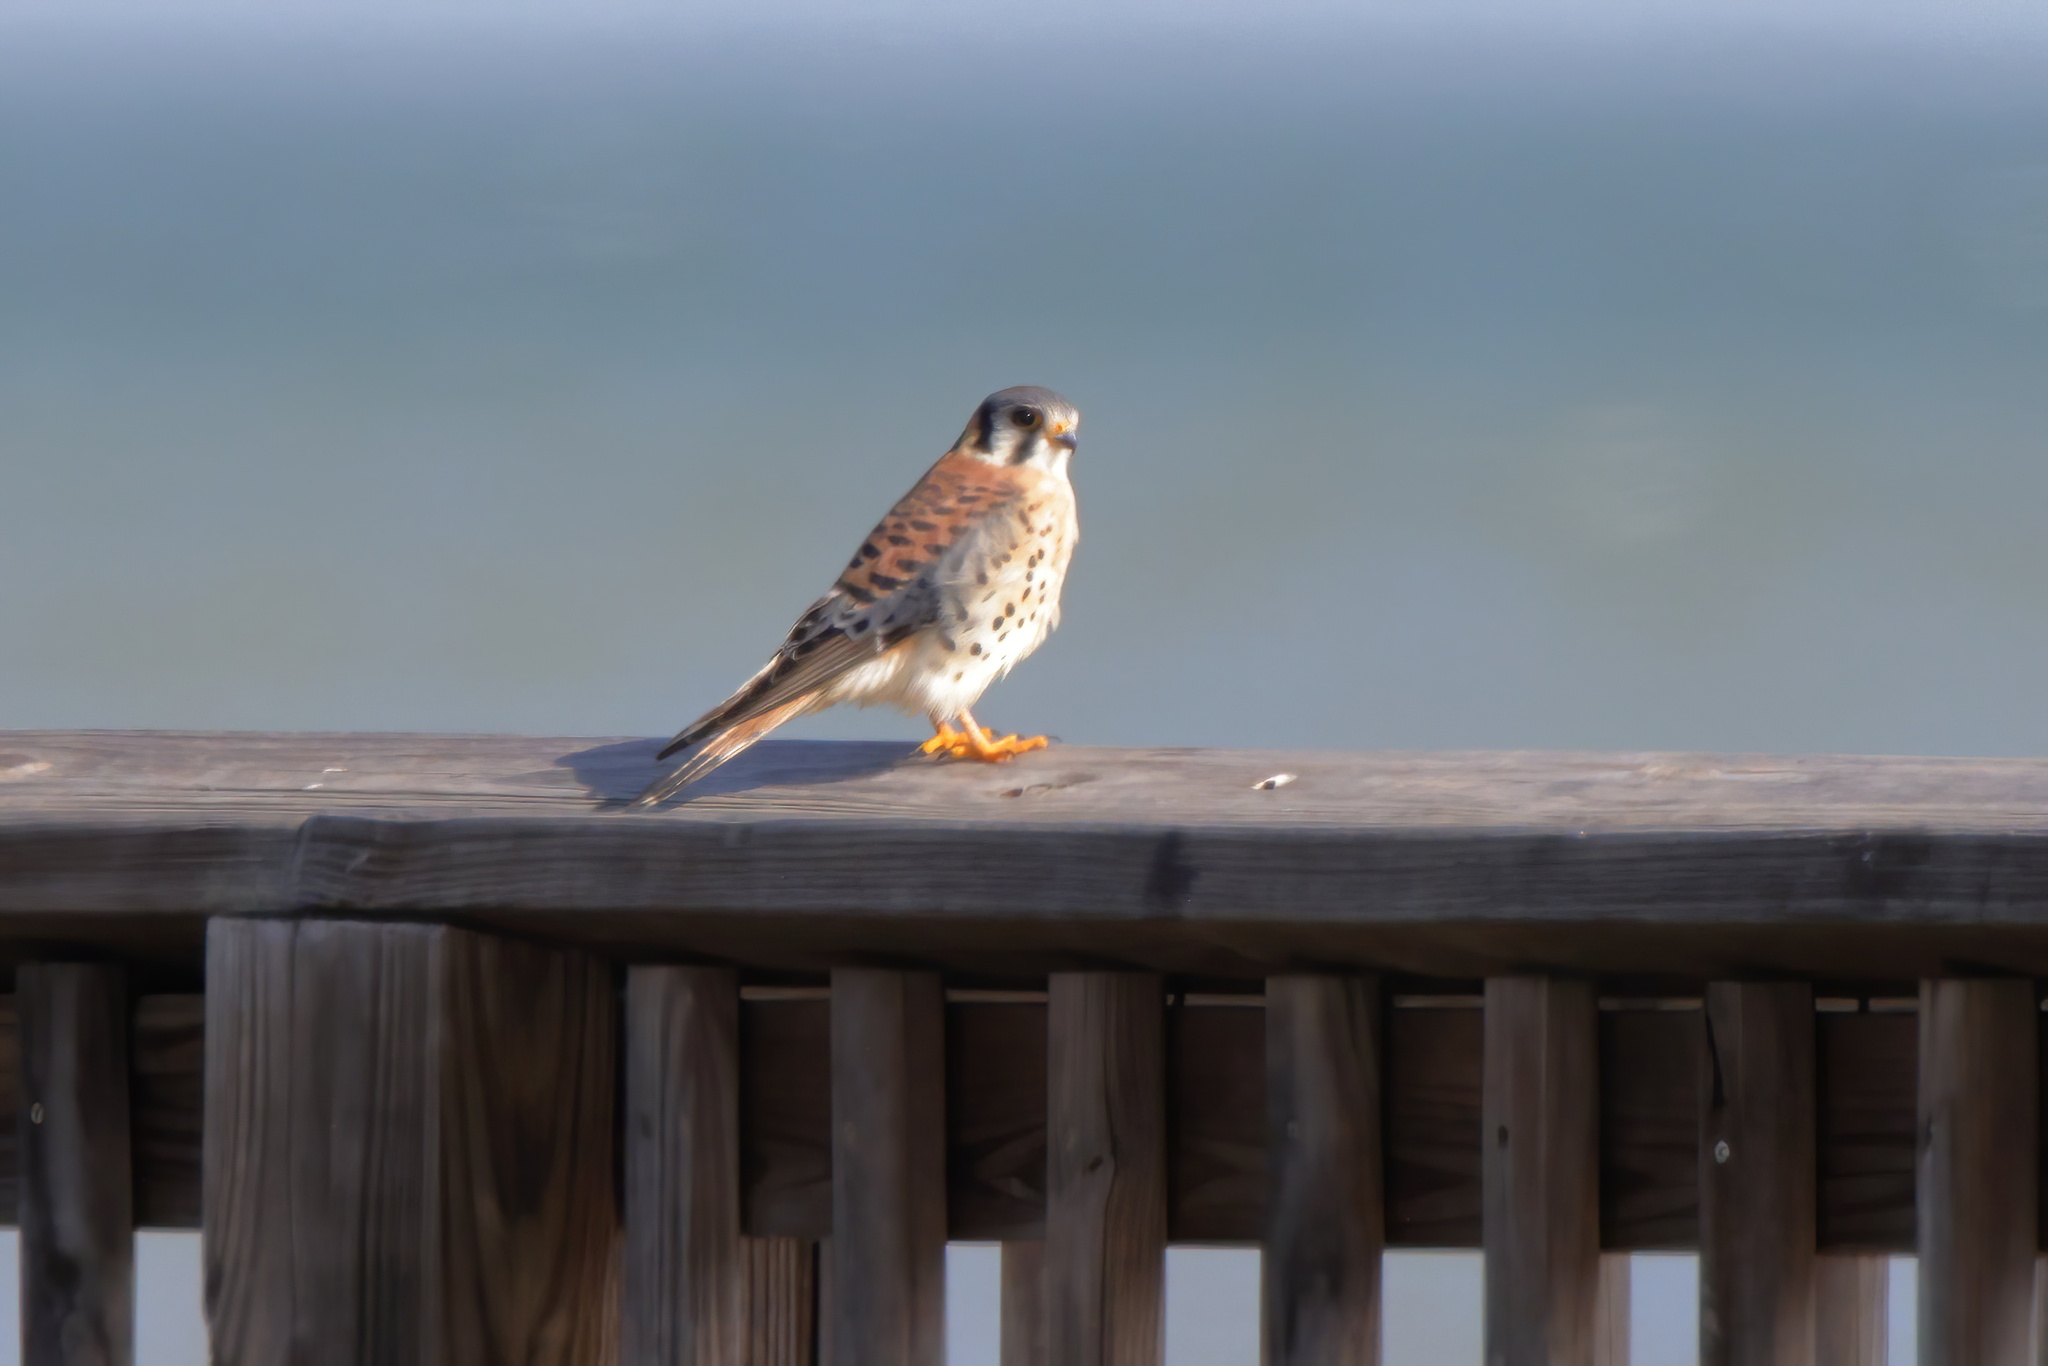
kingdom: Animalia
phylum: Chordata
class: Aves
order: Falconiformes
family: Falconidae
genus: Falco
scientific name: Falco sparverius
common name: American kestrel
